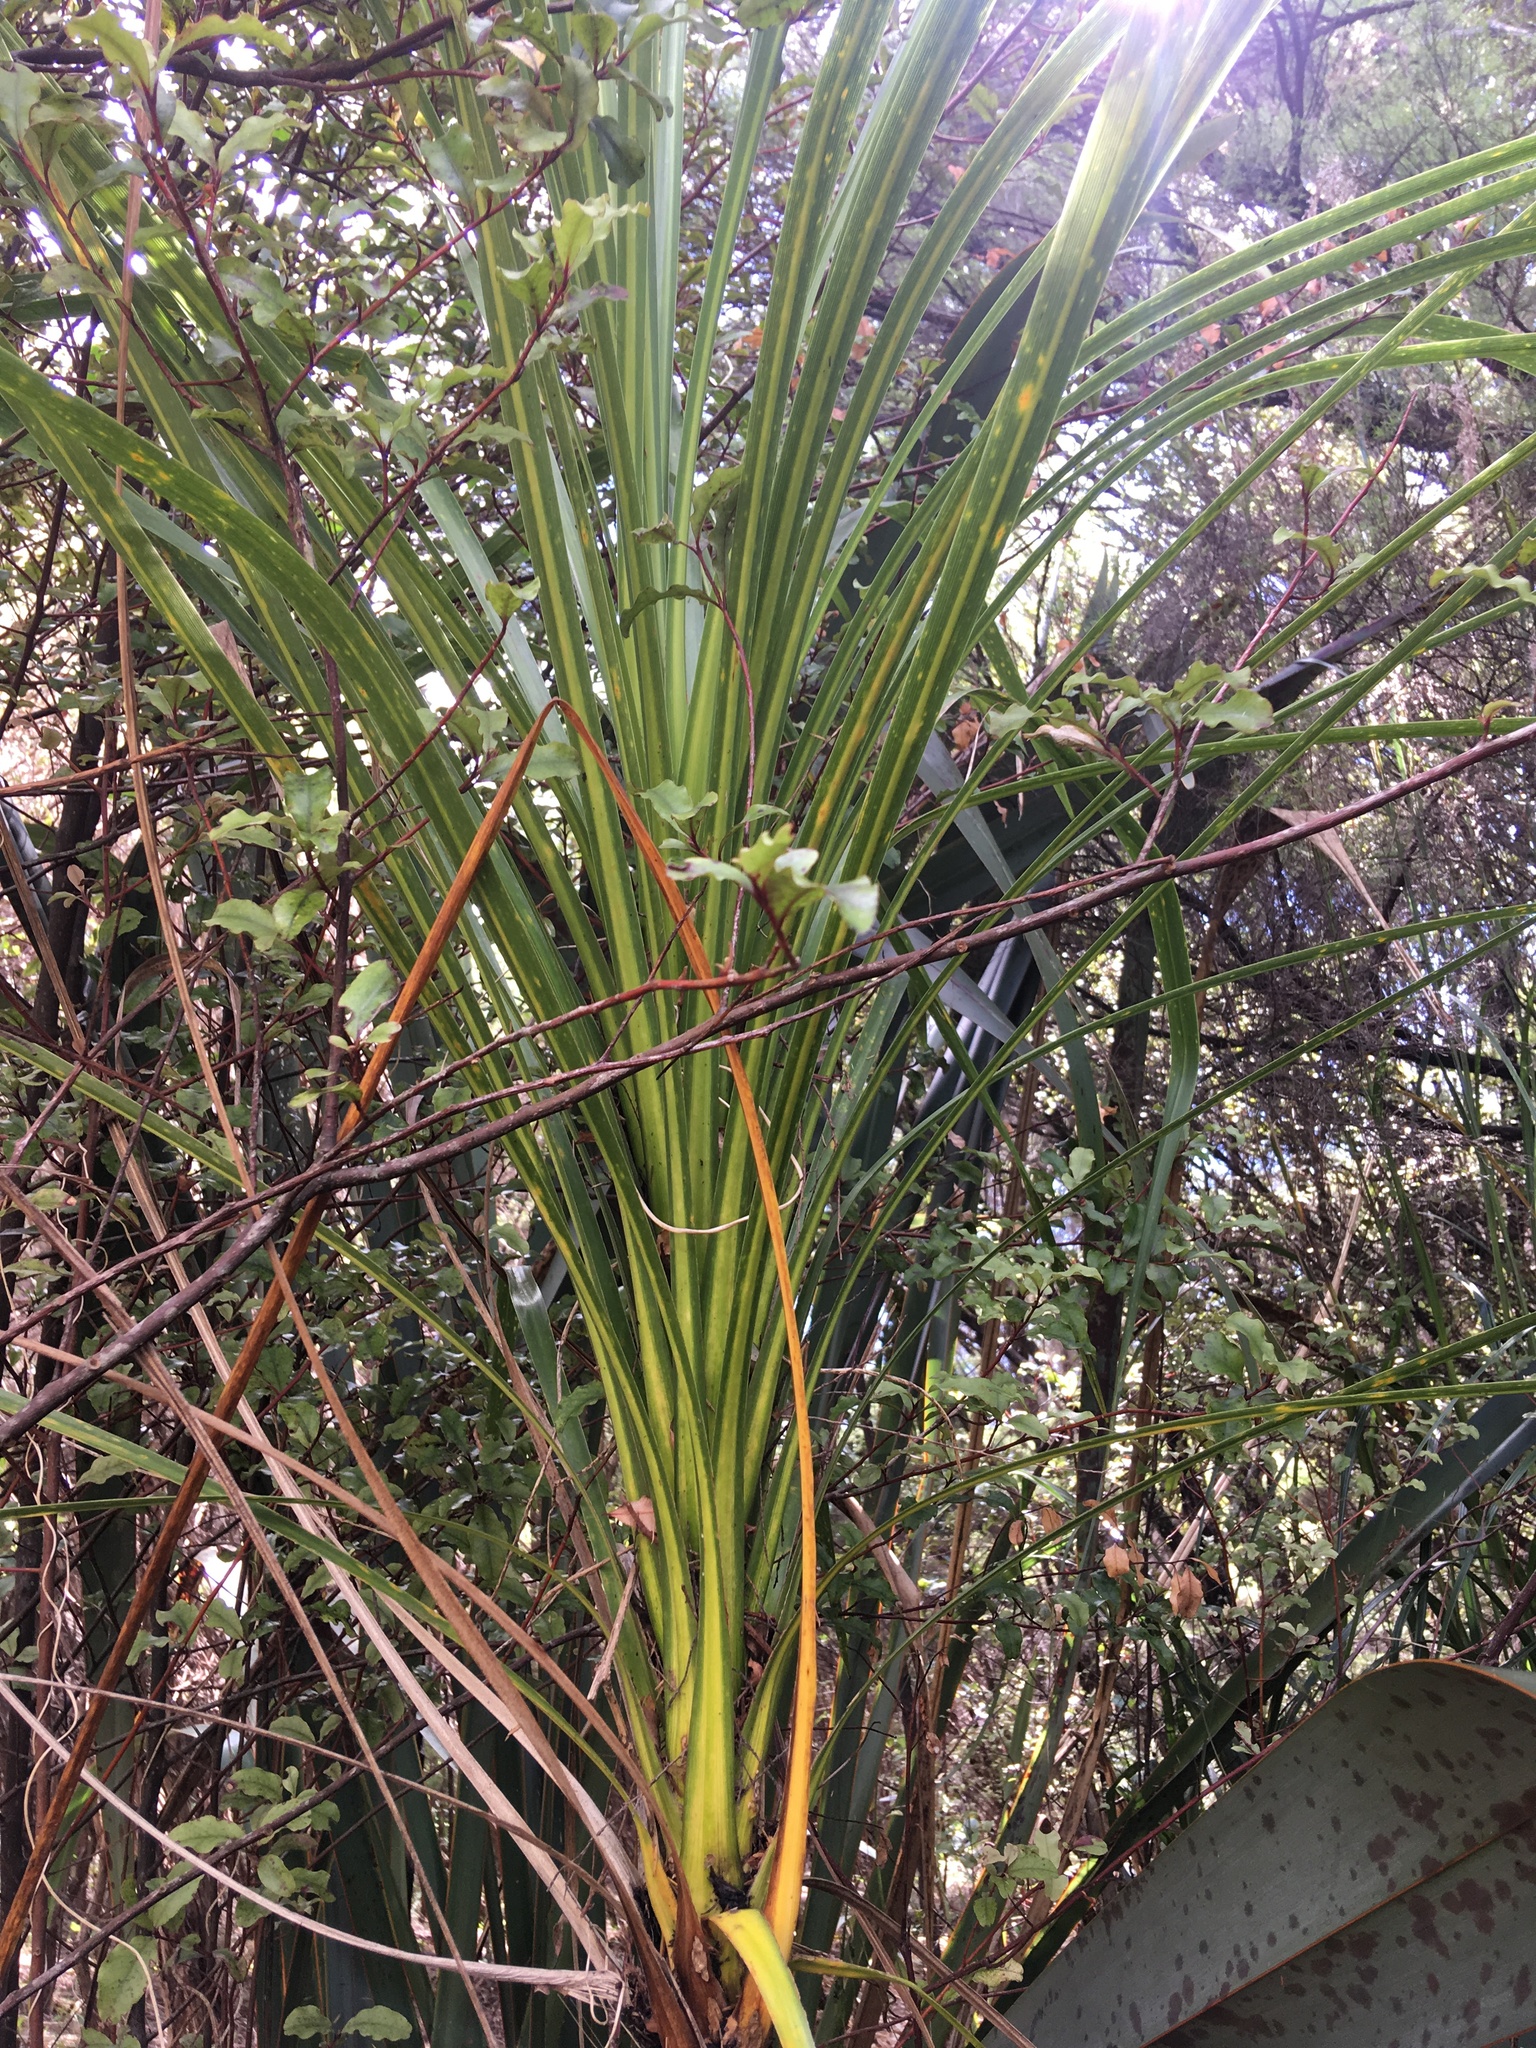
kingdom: Plantae
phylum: Tracheophyta
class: Liliopsida
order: Asparagales
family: Asparagaceae
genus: Cordyline
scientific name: Cordyline australis
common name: Cabbage-palm
